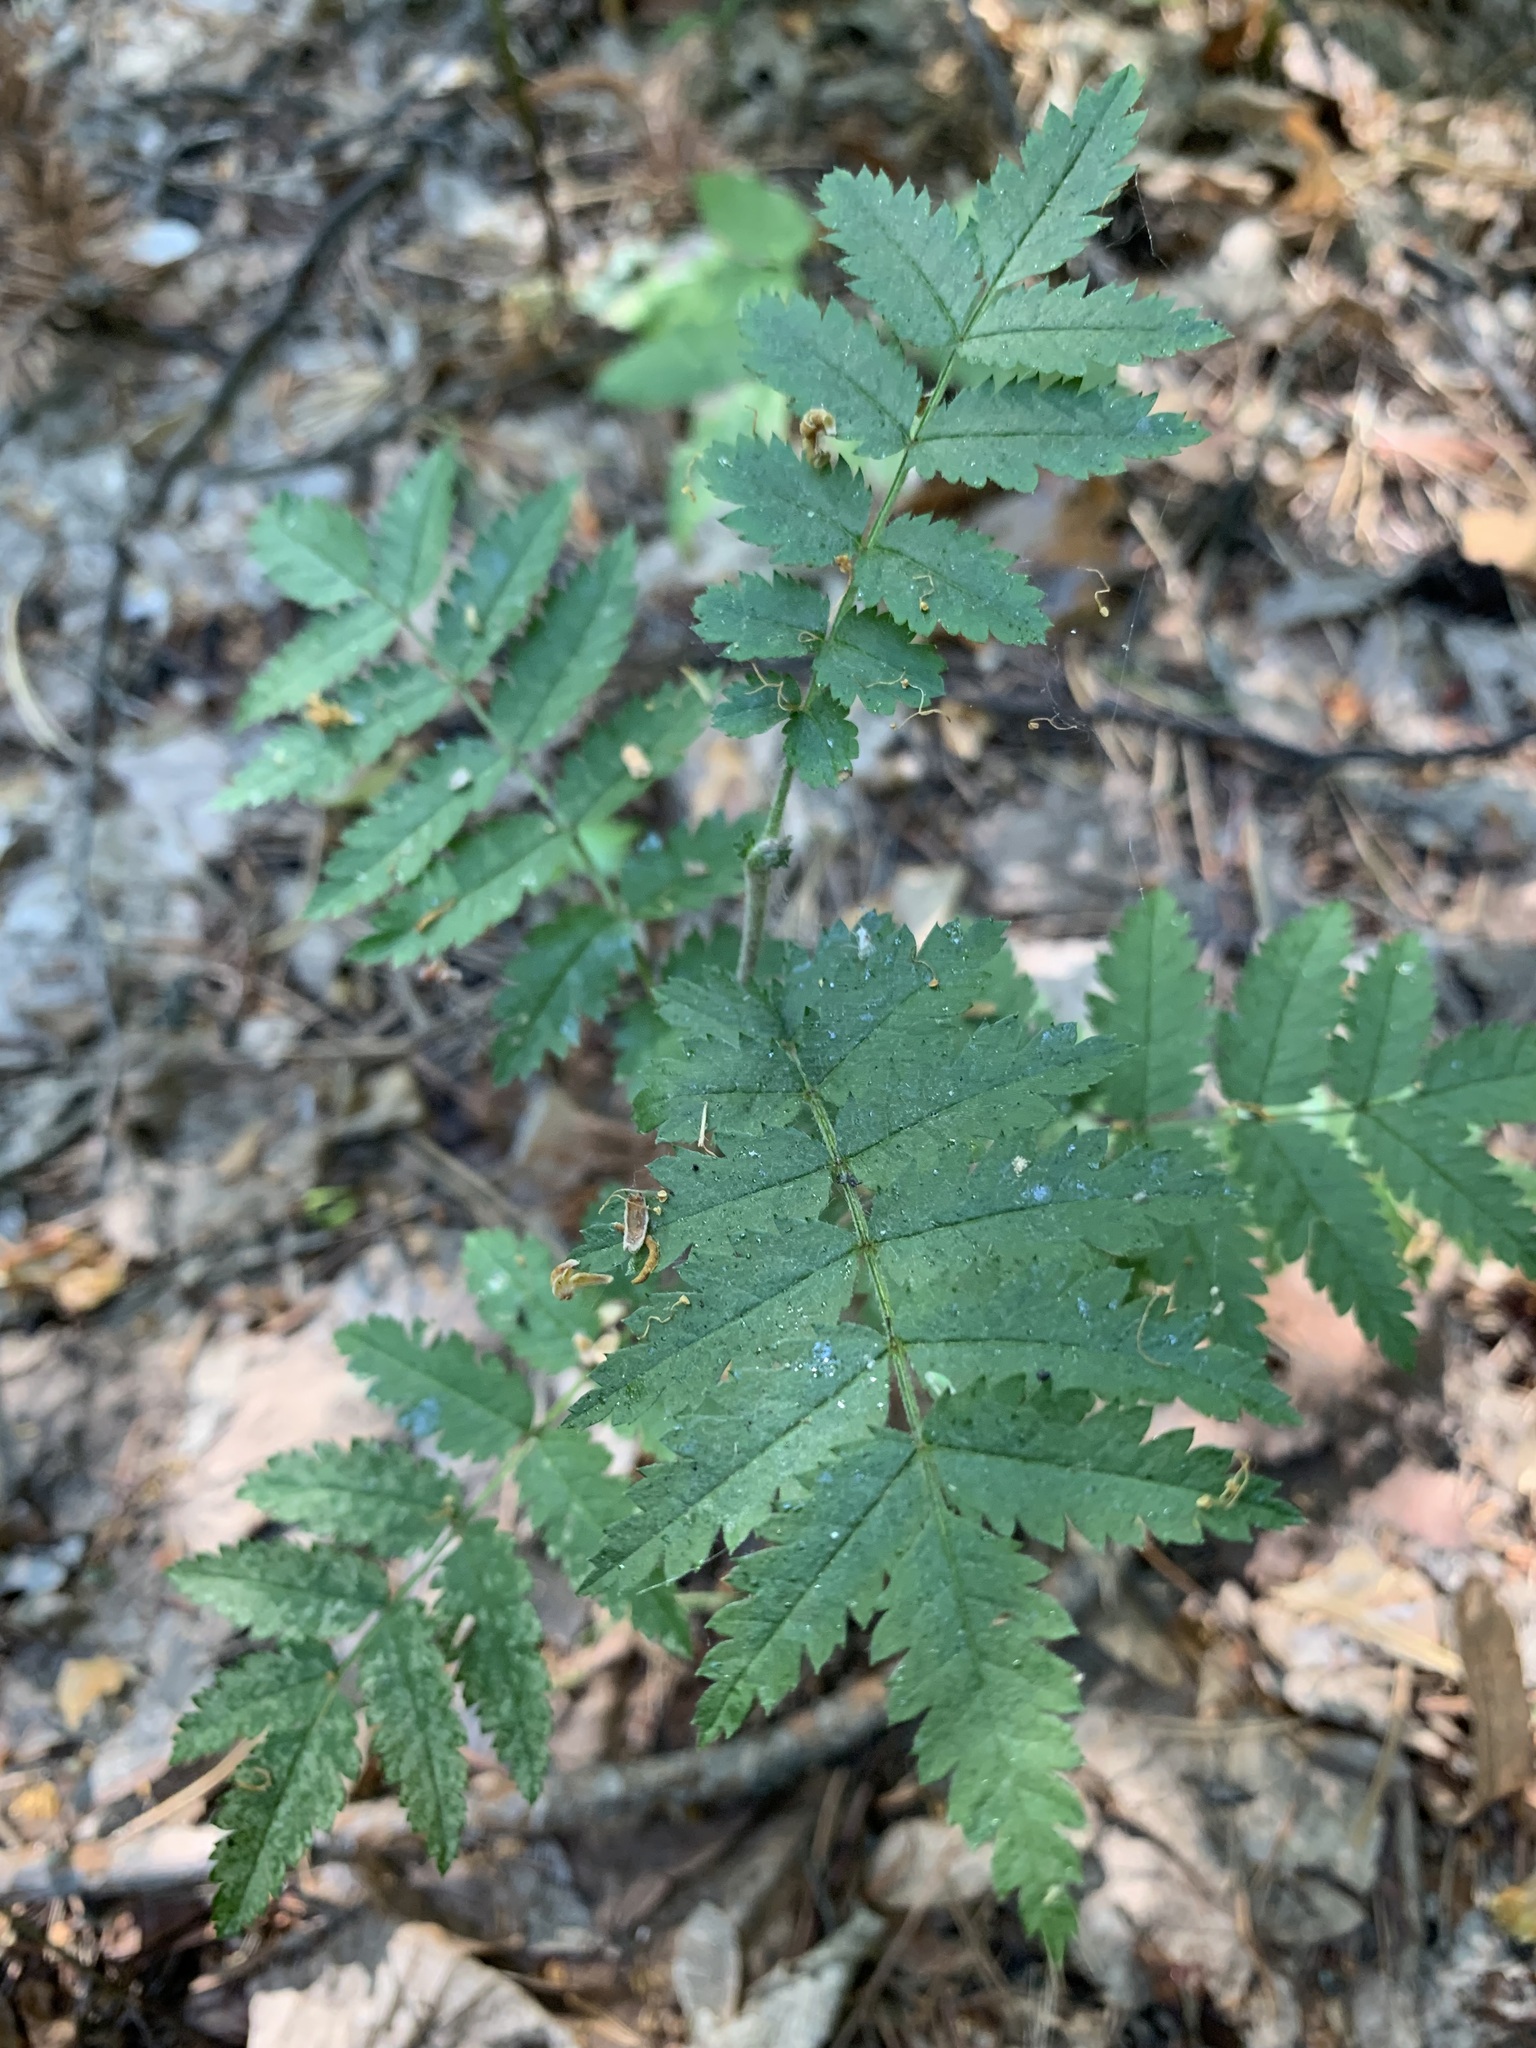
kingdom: Plantae
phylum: Tracheophyta
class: Magnoliopsida
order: Rosales
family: Rosaceae
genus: Sorbus
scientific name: Sorbus aucuparia
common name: Rowan
